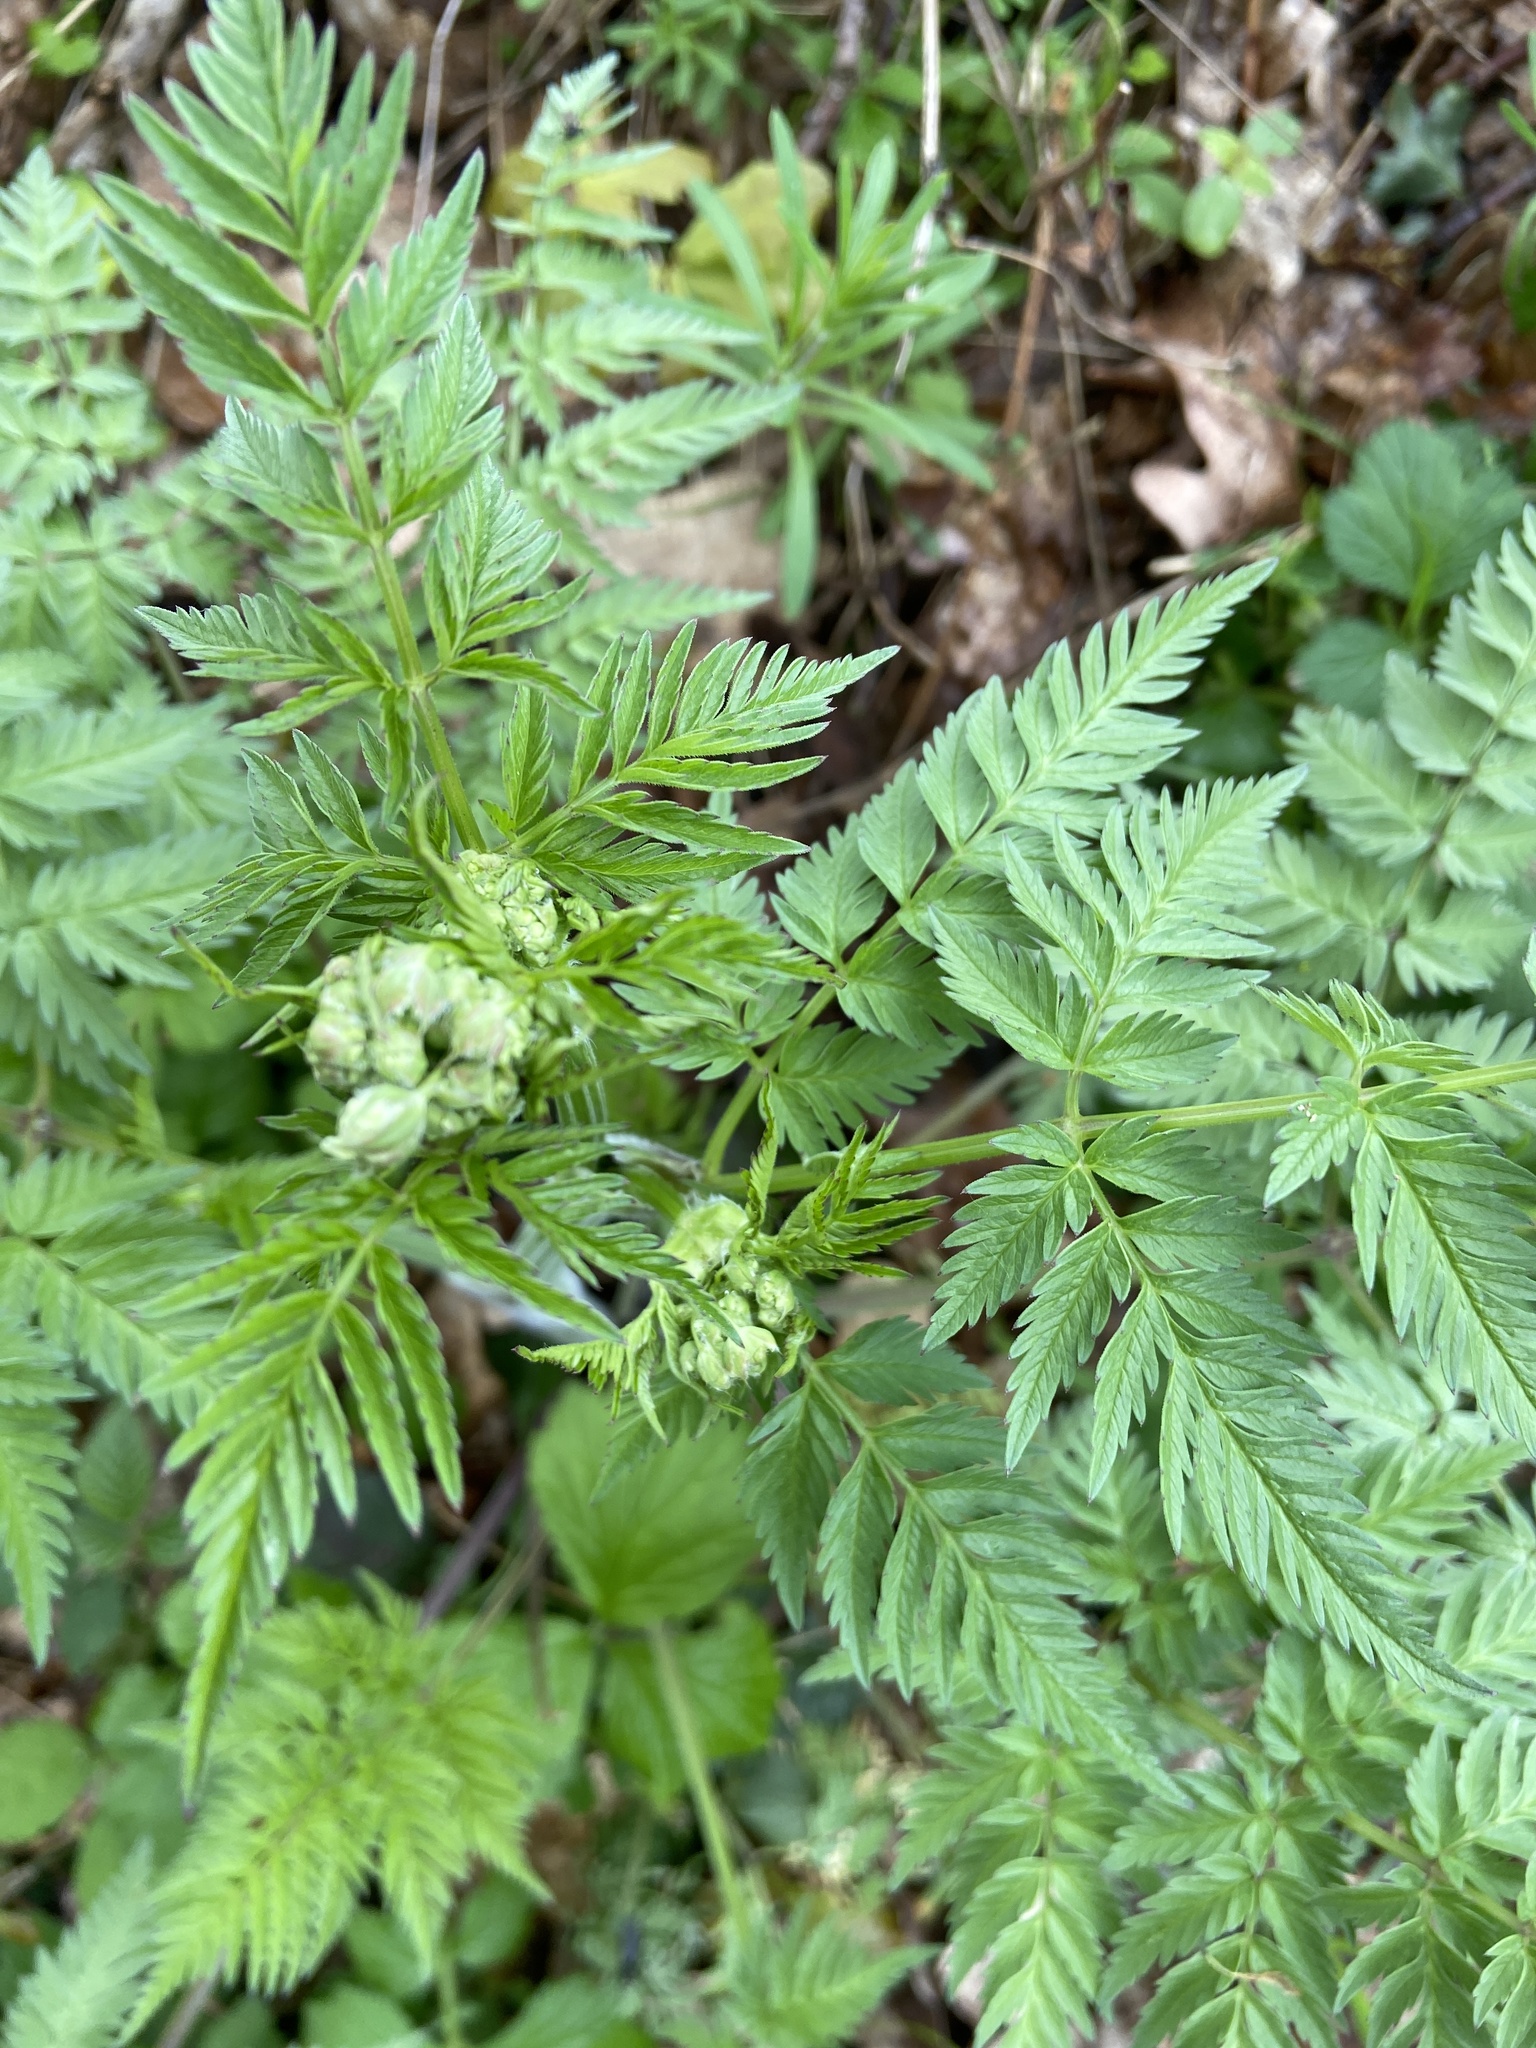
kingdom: Plantae
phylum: Tracheophyta
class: Magnoliopsida
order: Apiales
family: Apiaceae
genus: Anthriscus
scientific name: Anthriscus sylvestris
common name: Cow parsley
